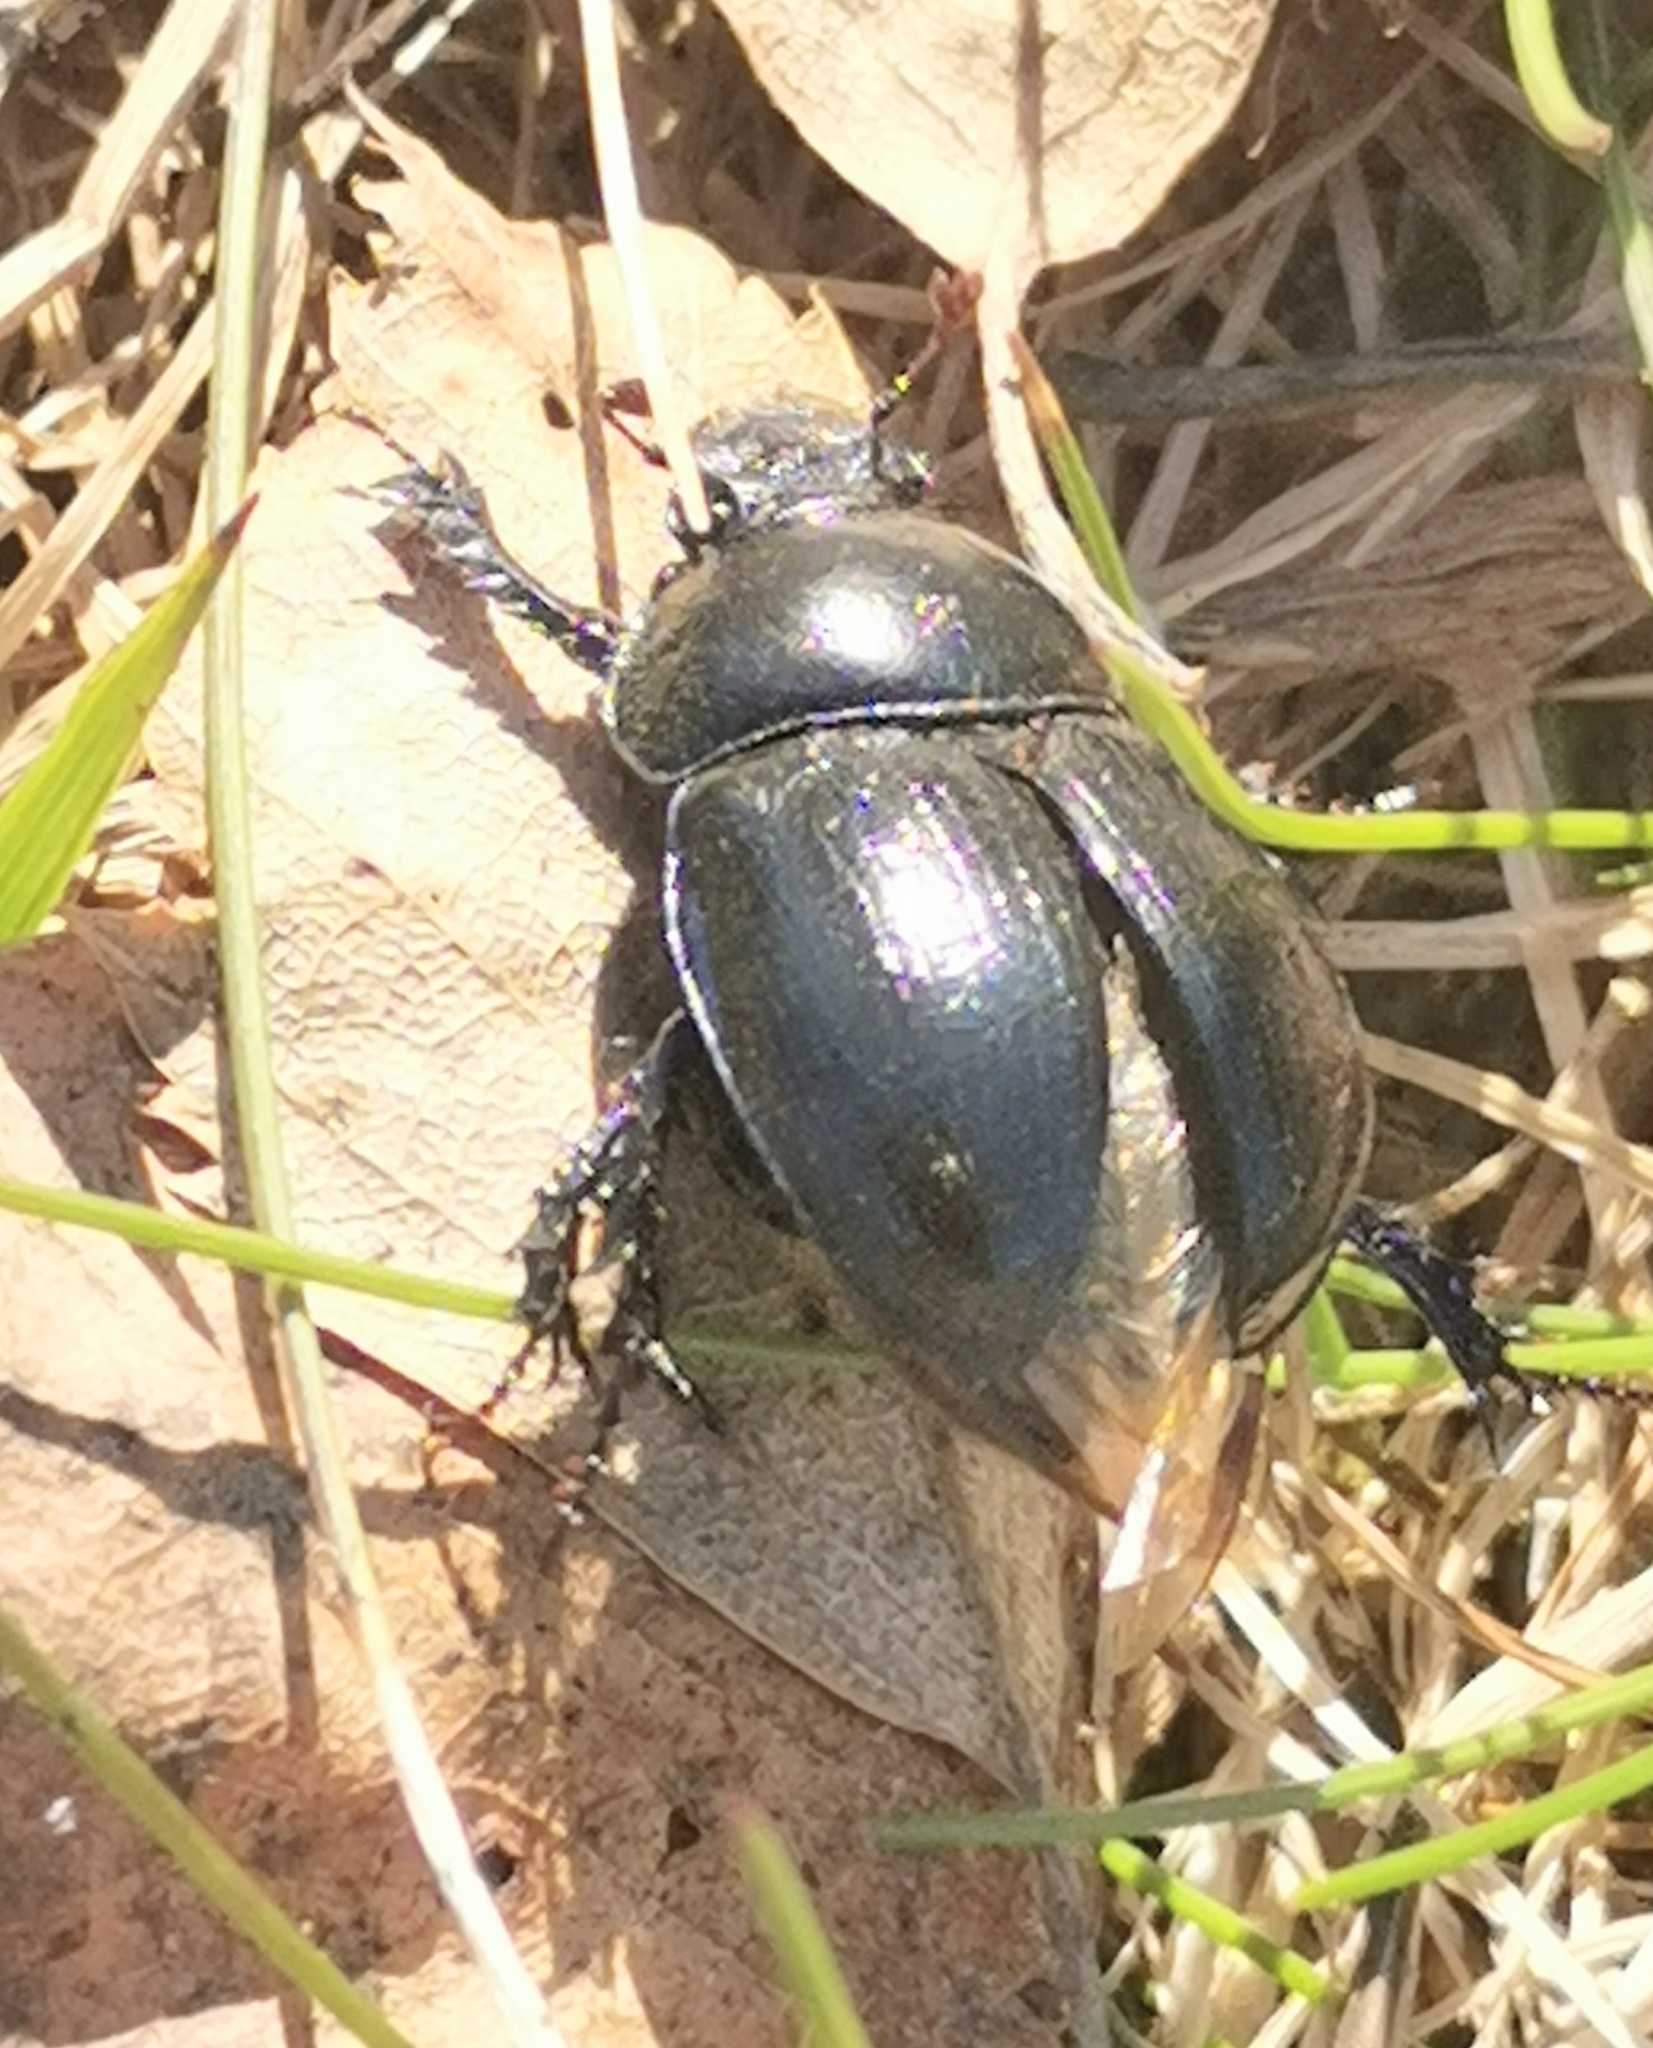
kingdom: Animalia
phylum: Arthropoda
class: Insecta
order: Coleoptera
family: Geotrupidae
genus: Anoplotrupes
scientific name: Anoplotrupes stercorosus
